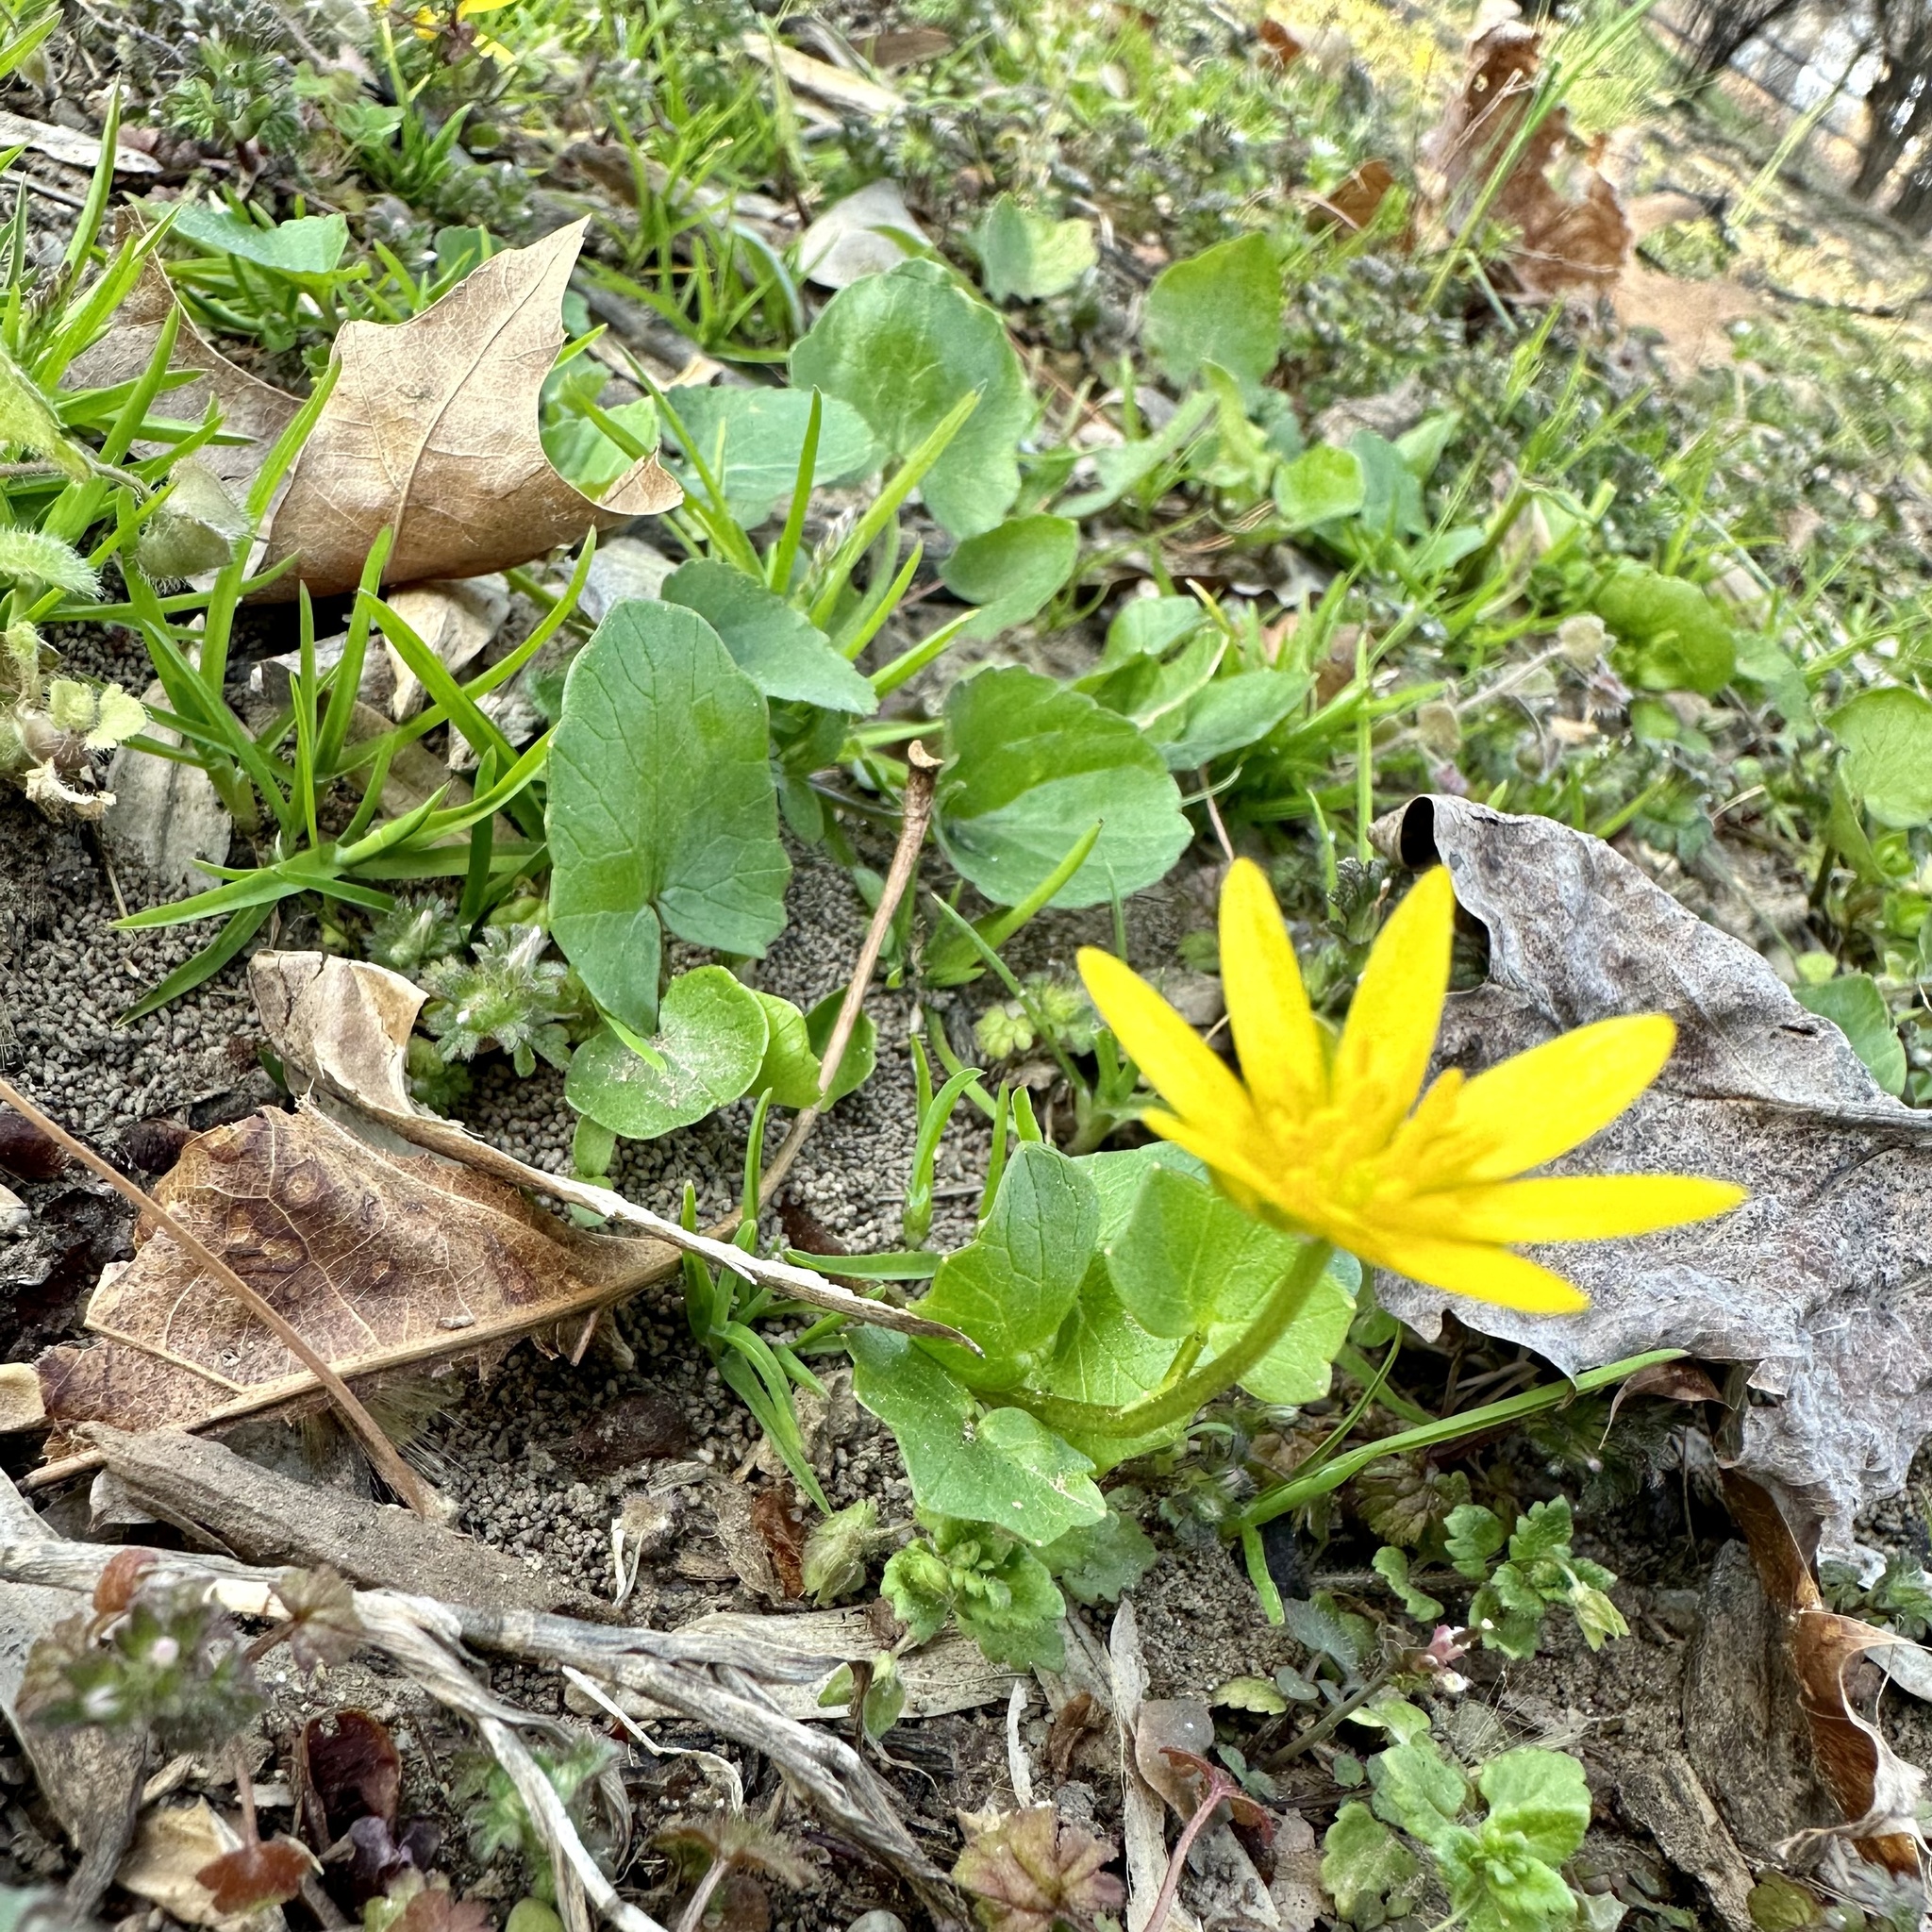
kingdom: Plantae
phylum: Tracheophyta
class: Magnoliopsida
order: Ranunculales
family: Ranunculaceae
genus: Ficaria
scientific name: Ficaria verna
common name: Lesser celandine
